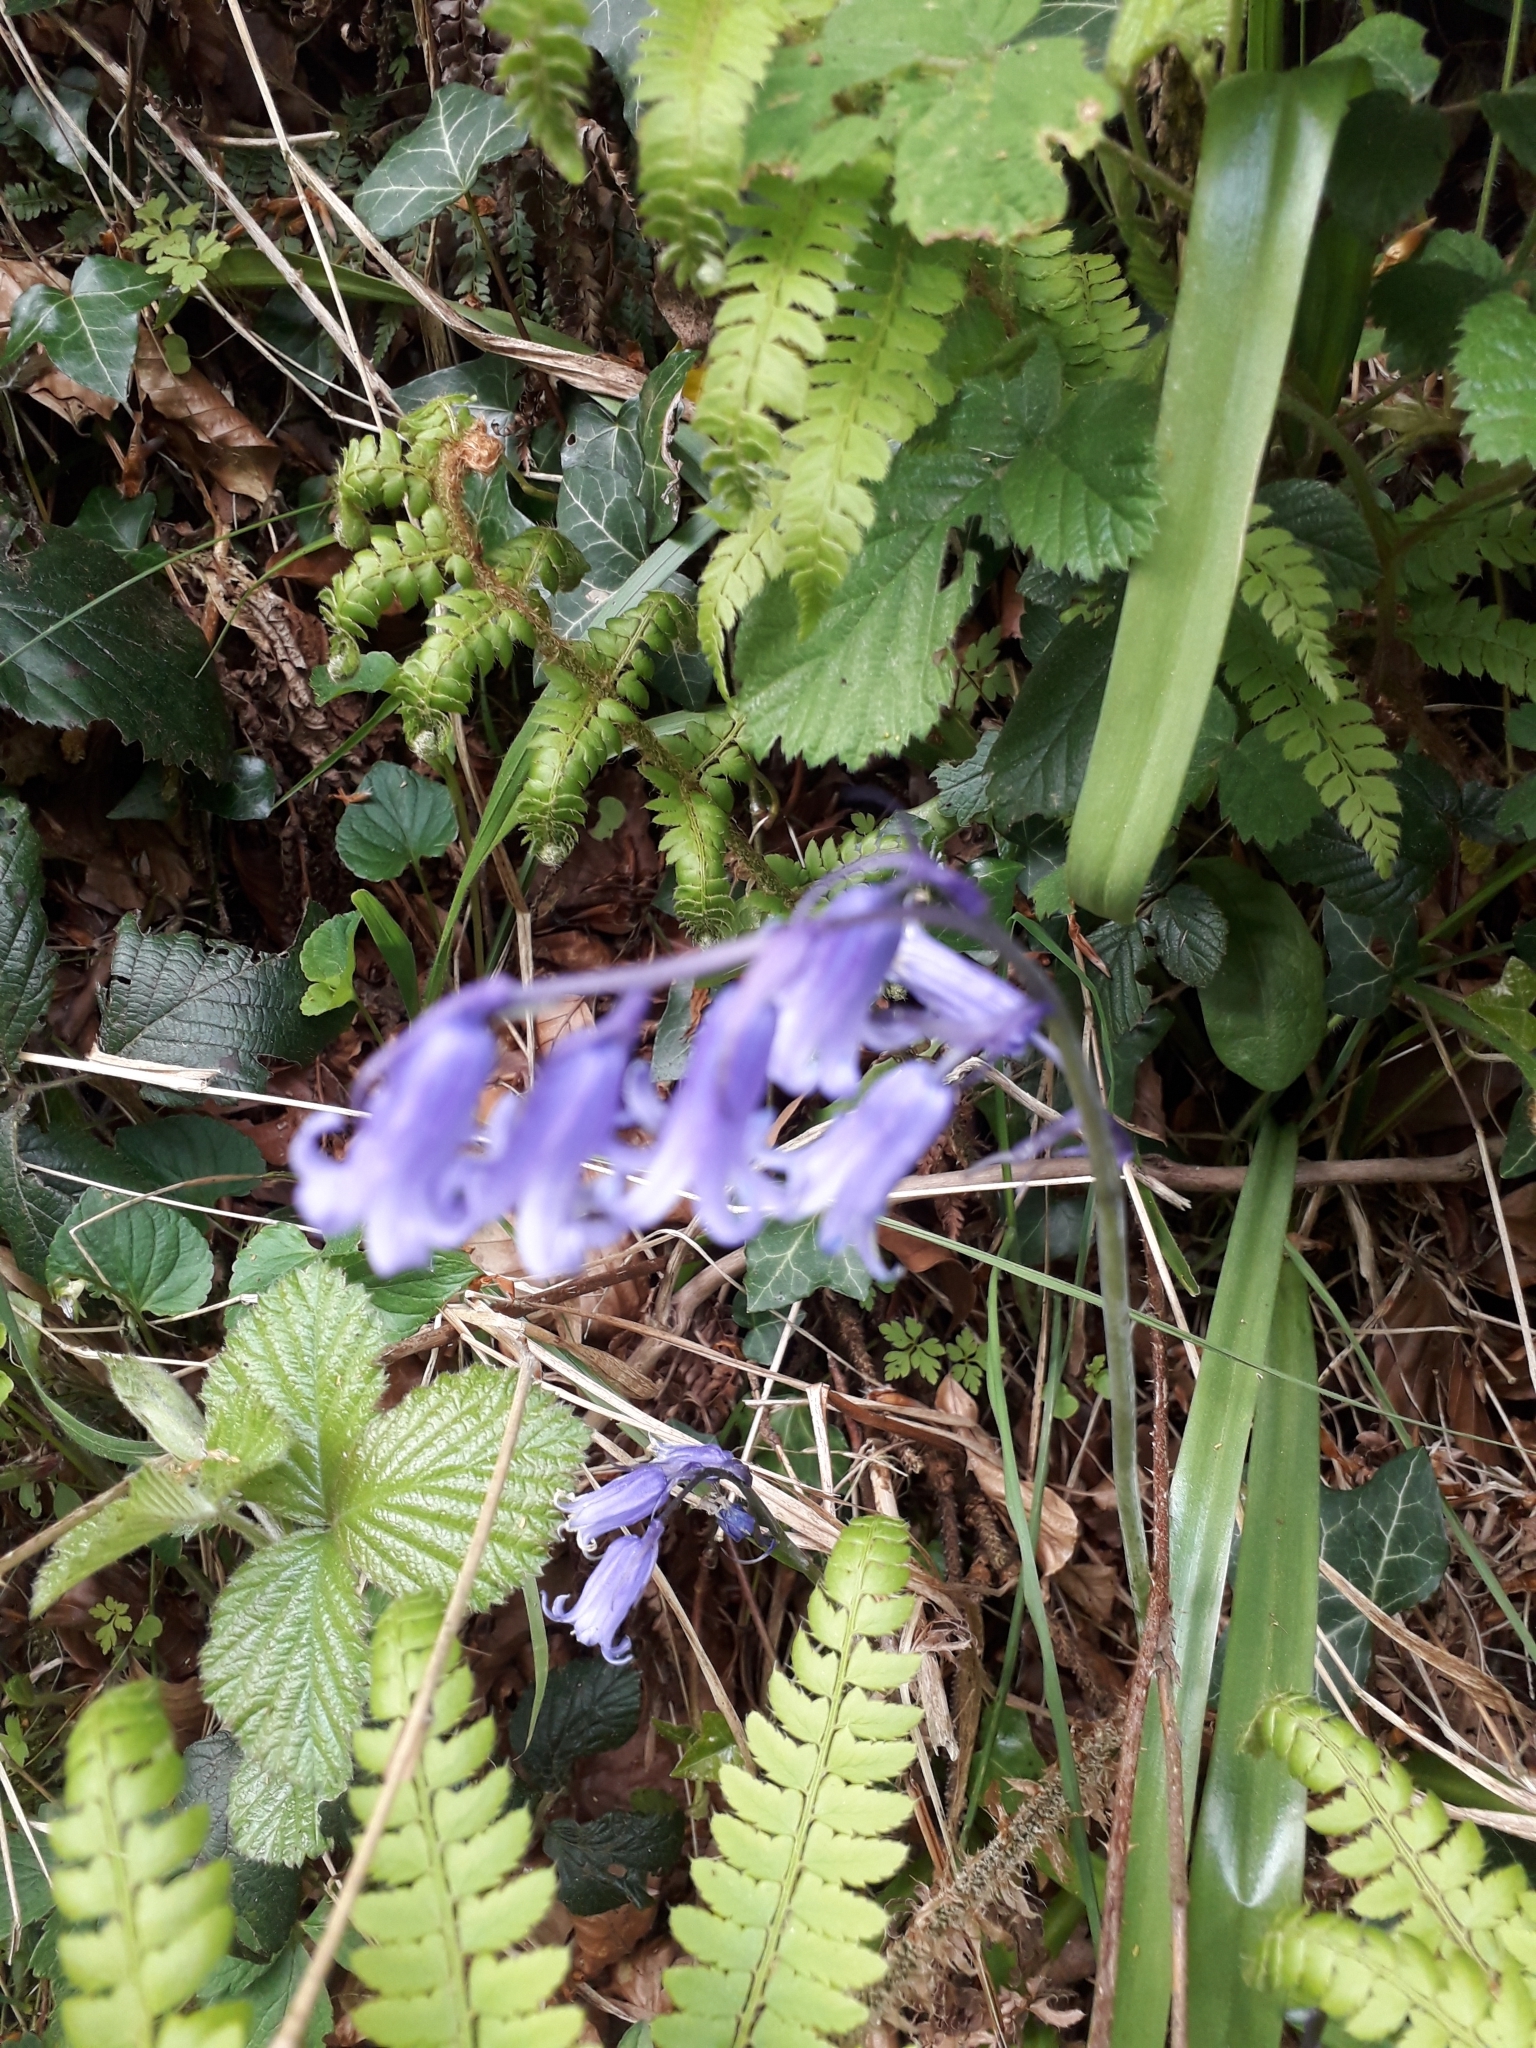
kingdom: Plantae
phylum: Tracheophyta
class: Liliopsida
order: Asparagales
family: Asparagaceae
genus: Hyacinthoides
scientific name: Hyacinthoides non-scripta
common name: Bluebell
